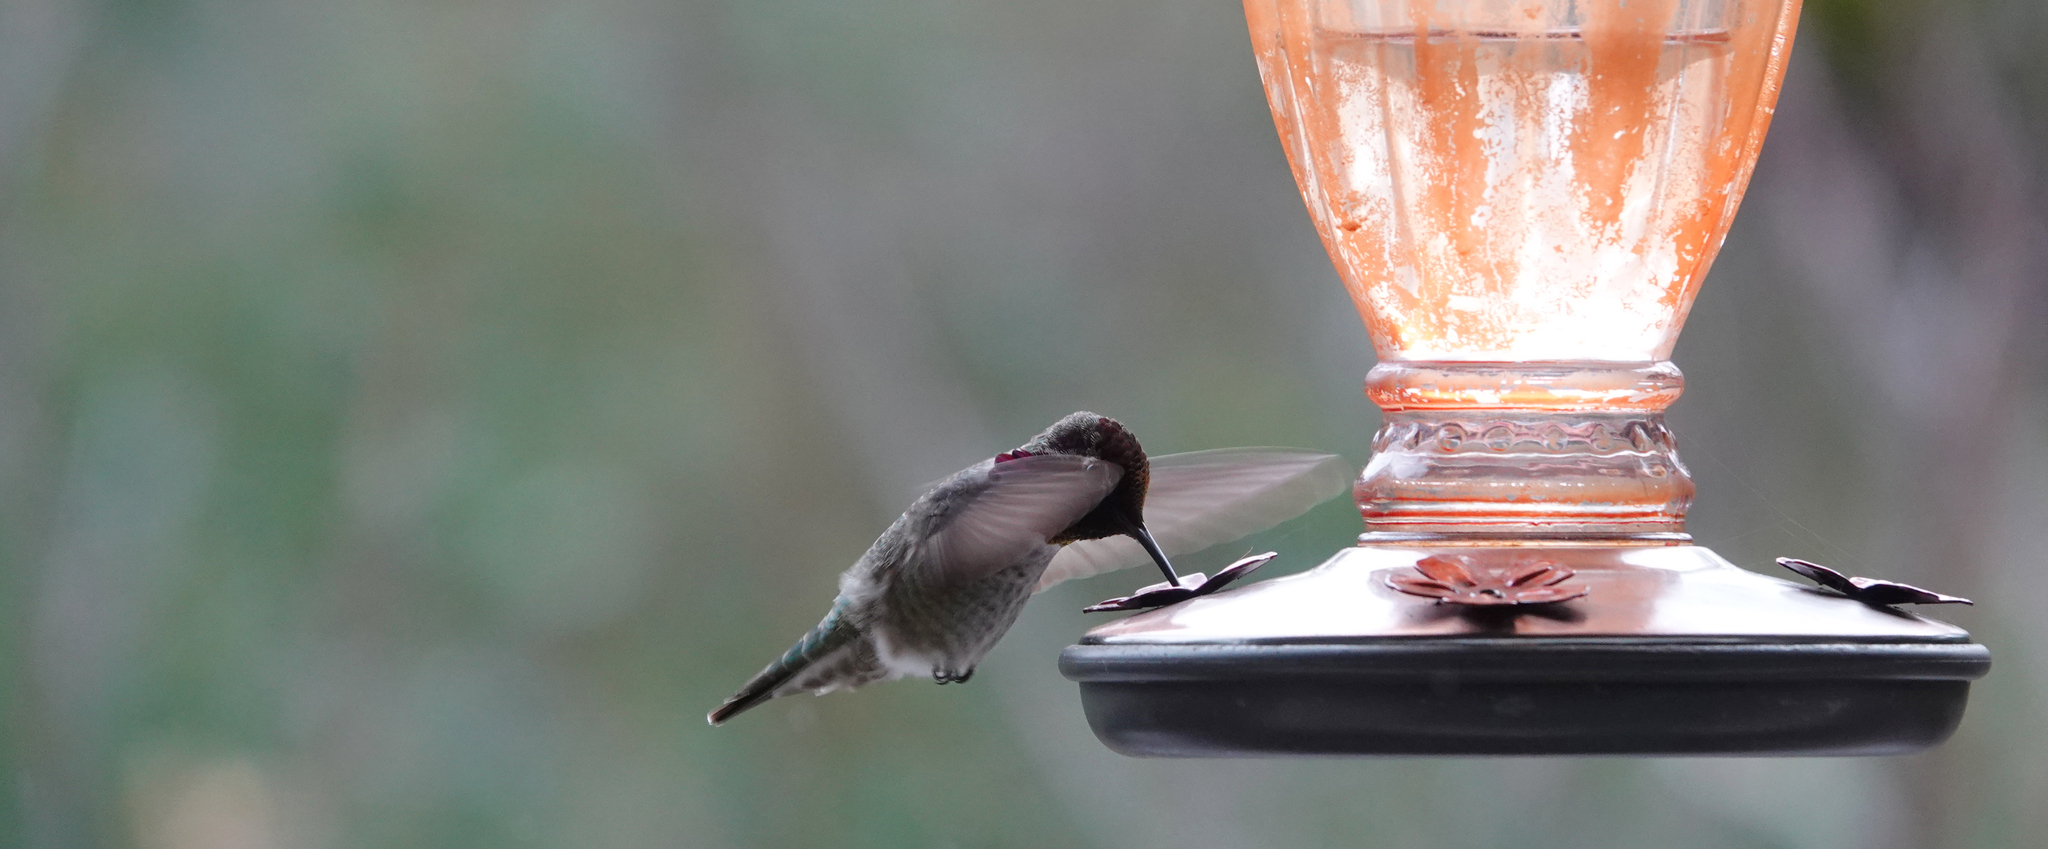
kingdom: Animalia
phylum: Chordata
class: Aves
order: Apodiformes
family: Trochilidae
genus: Calypte
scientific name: Calypte anna
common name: Anna's hummingbird
